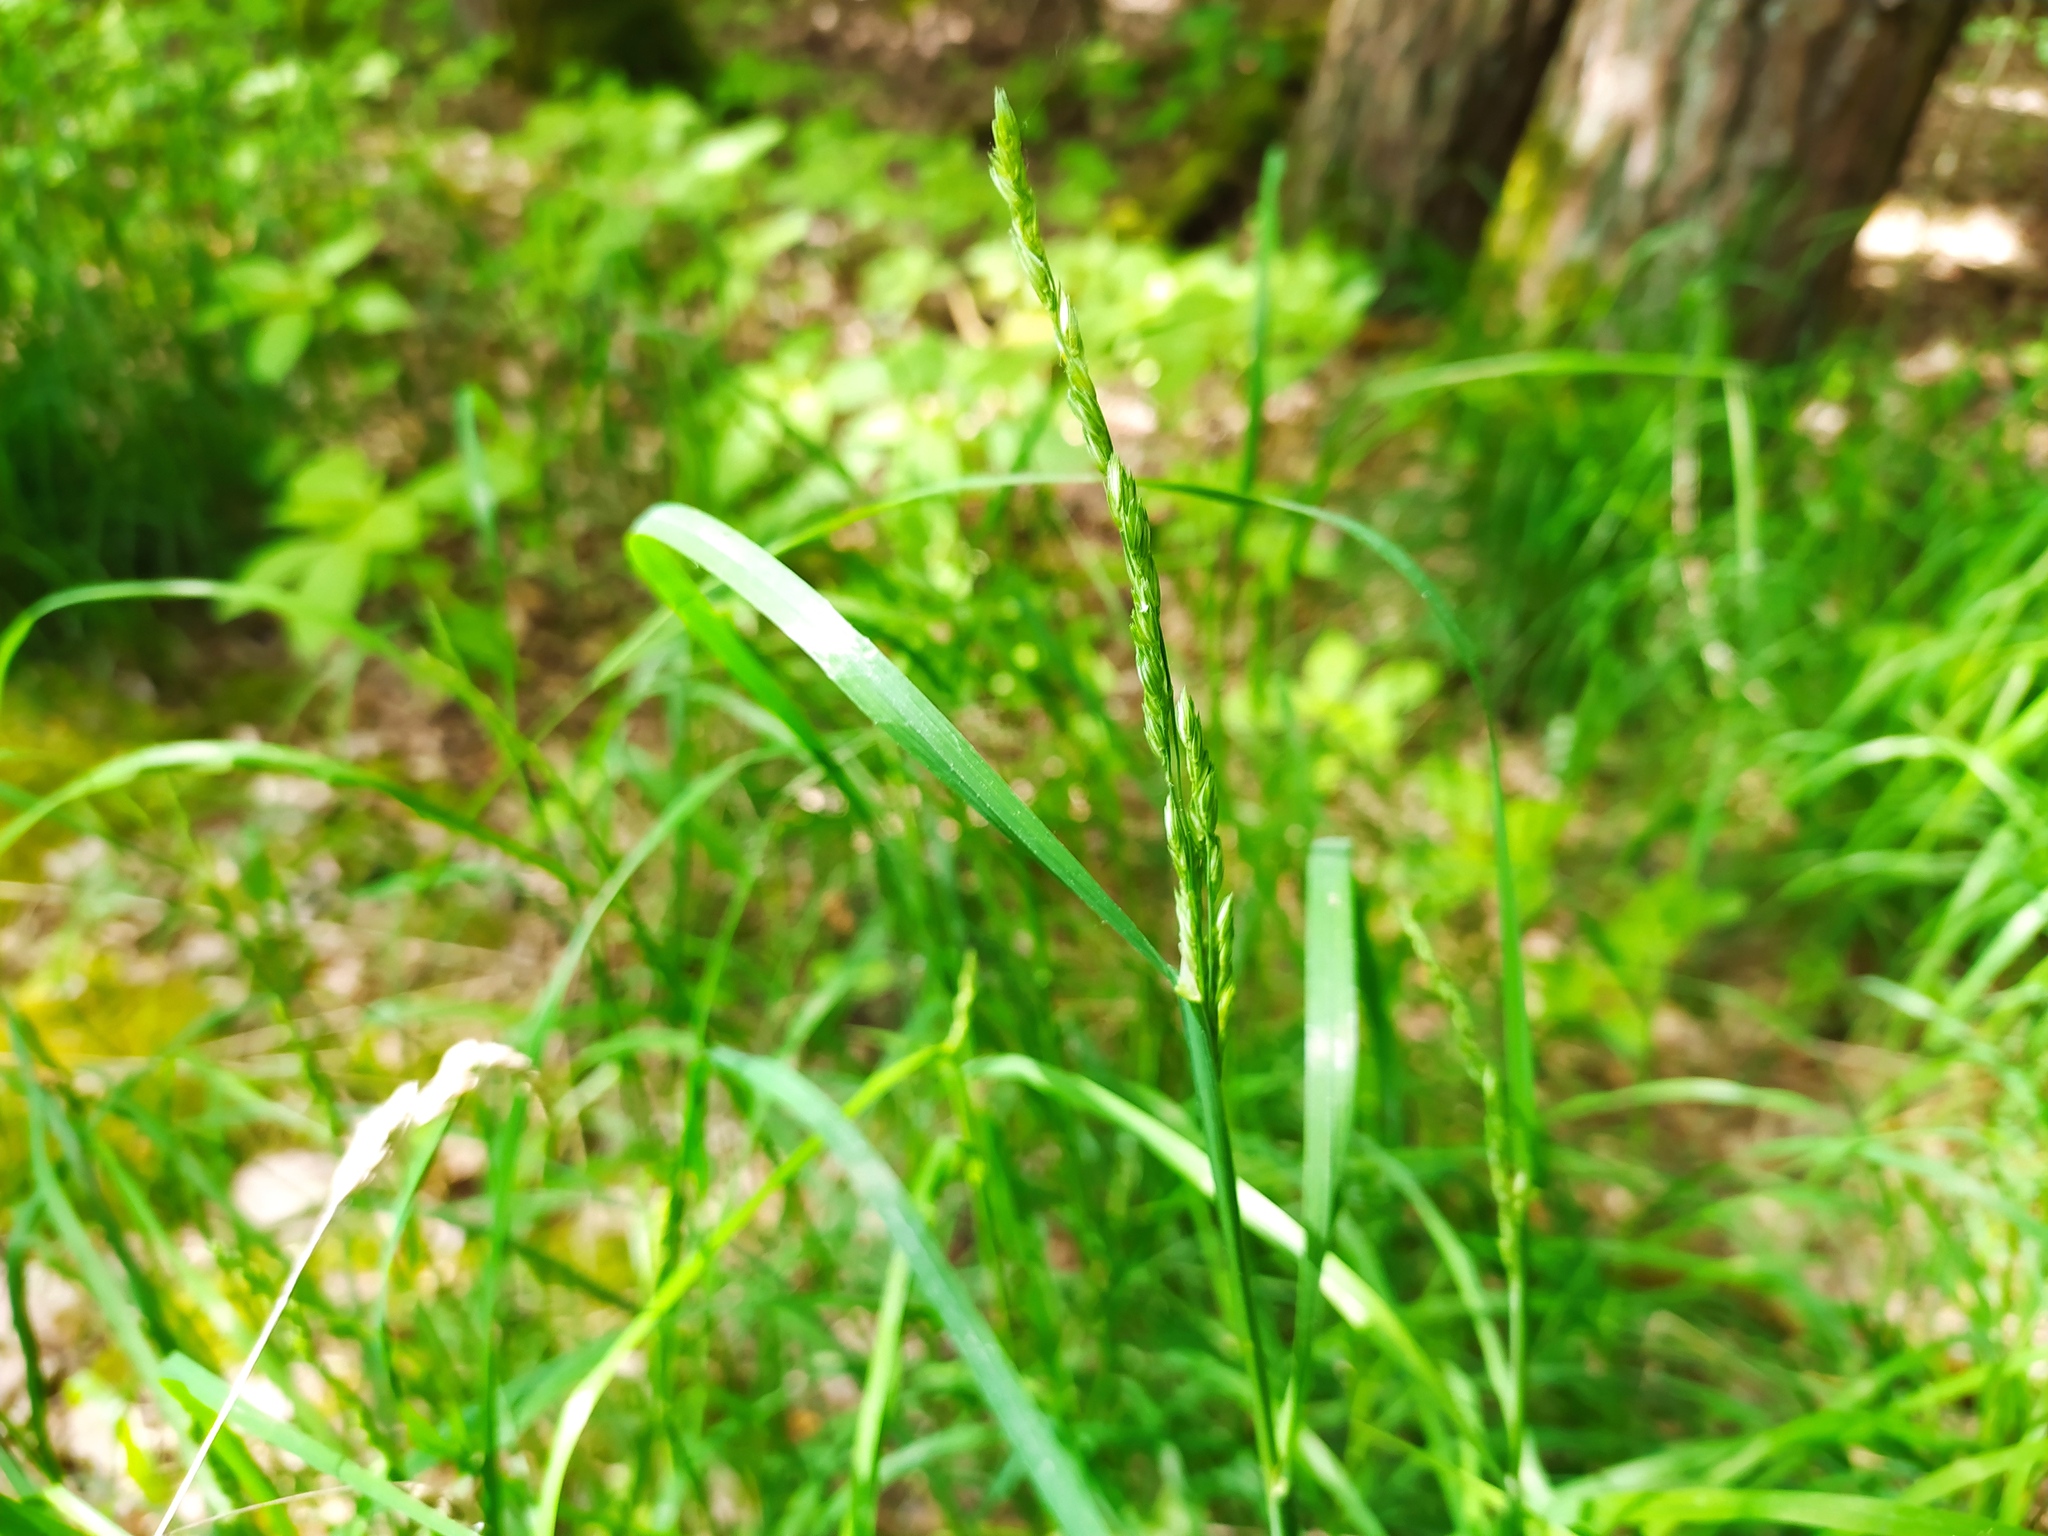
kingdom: Plantae
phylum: Tracheophyta
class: Liliopsida
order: Poales
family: Poaceae
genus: Dactylis
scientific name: Dactylis glomerata
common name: Orchardgrass
